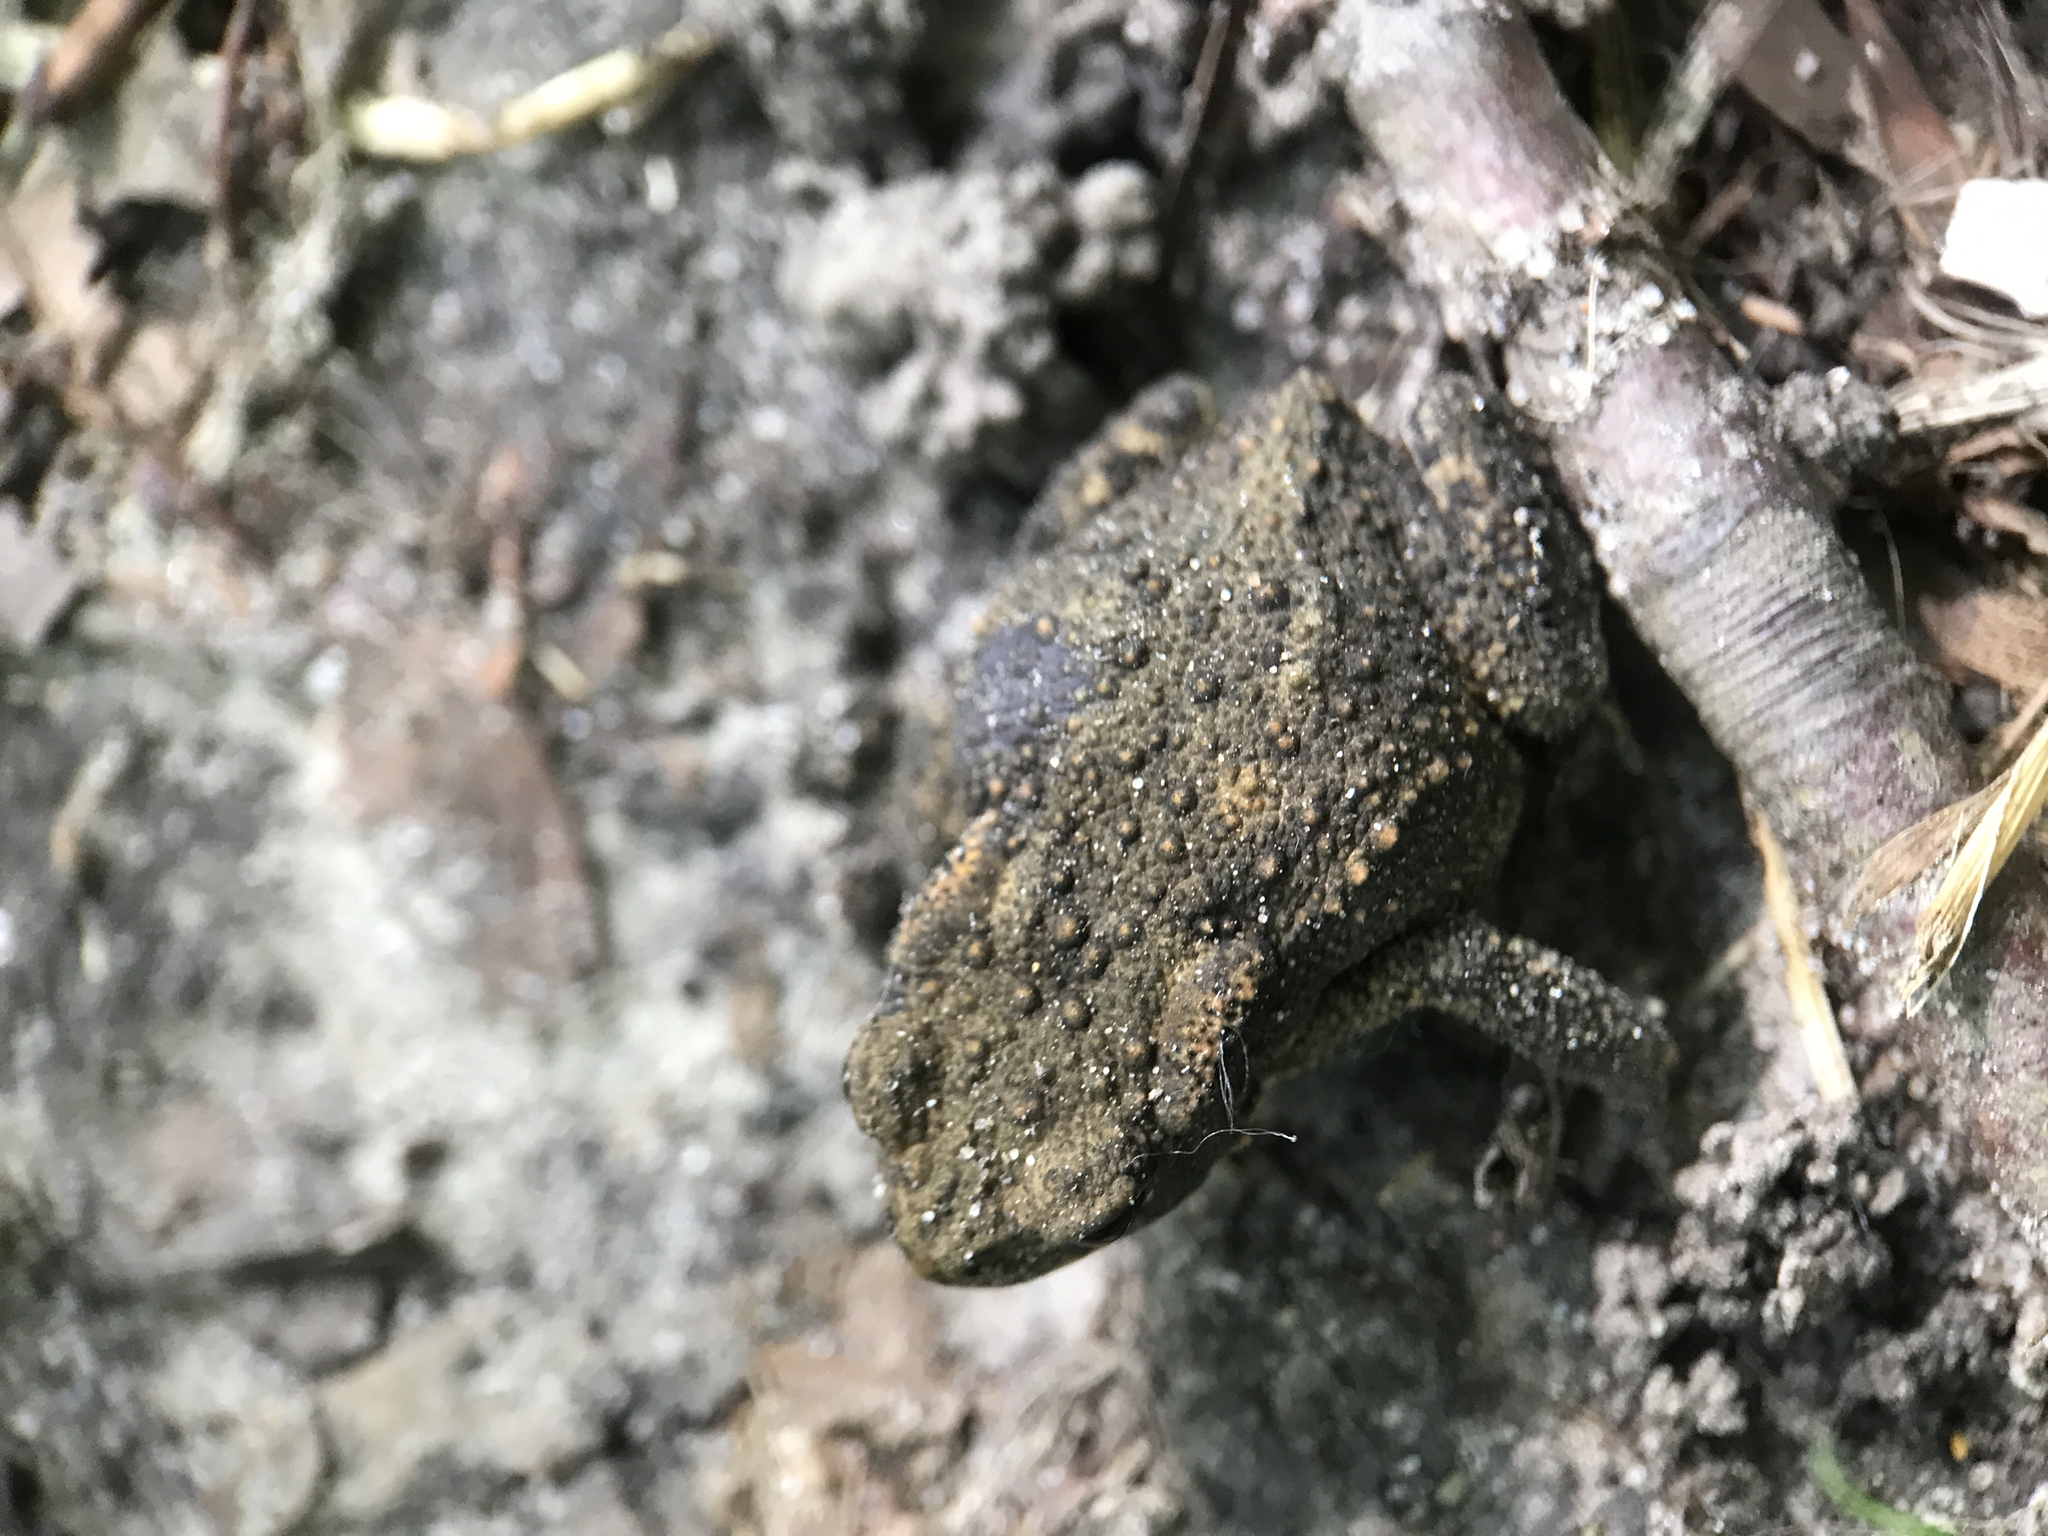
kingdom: Animalia
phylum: Chordata
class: Amphibia
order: Anura
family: Bufonidae
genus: Bufo
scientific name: Bufo bufo
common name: Common toad
